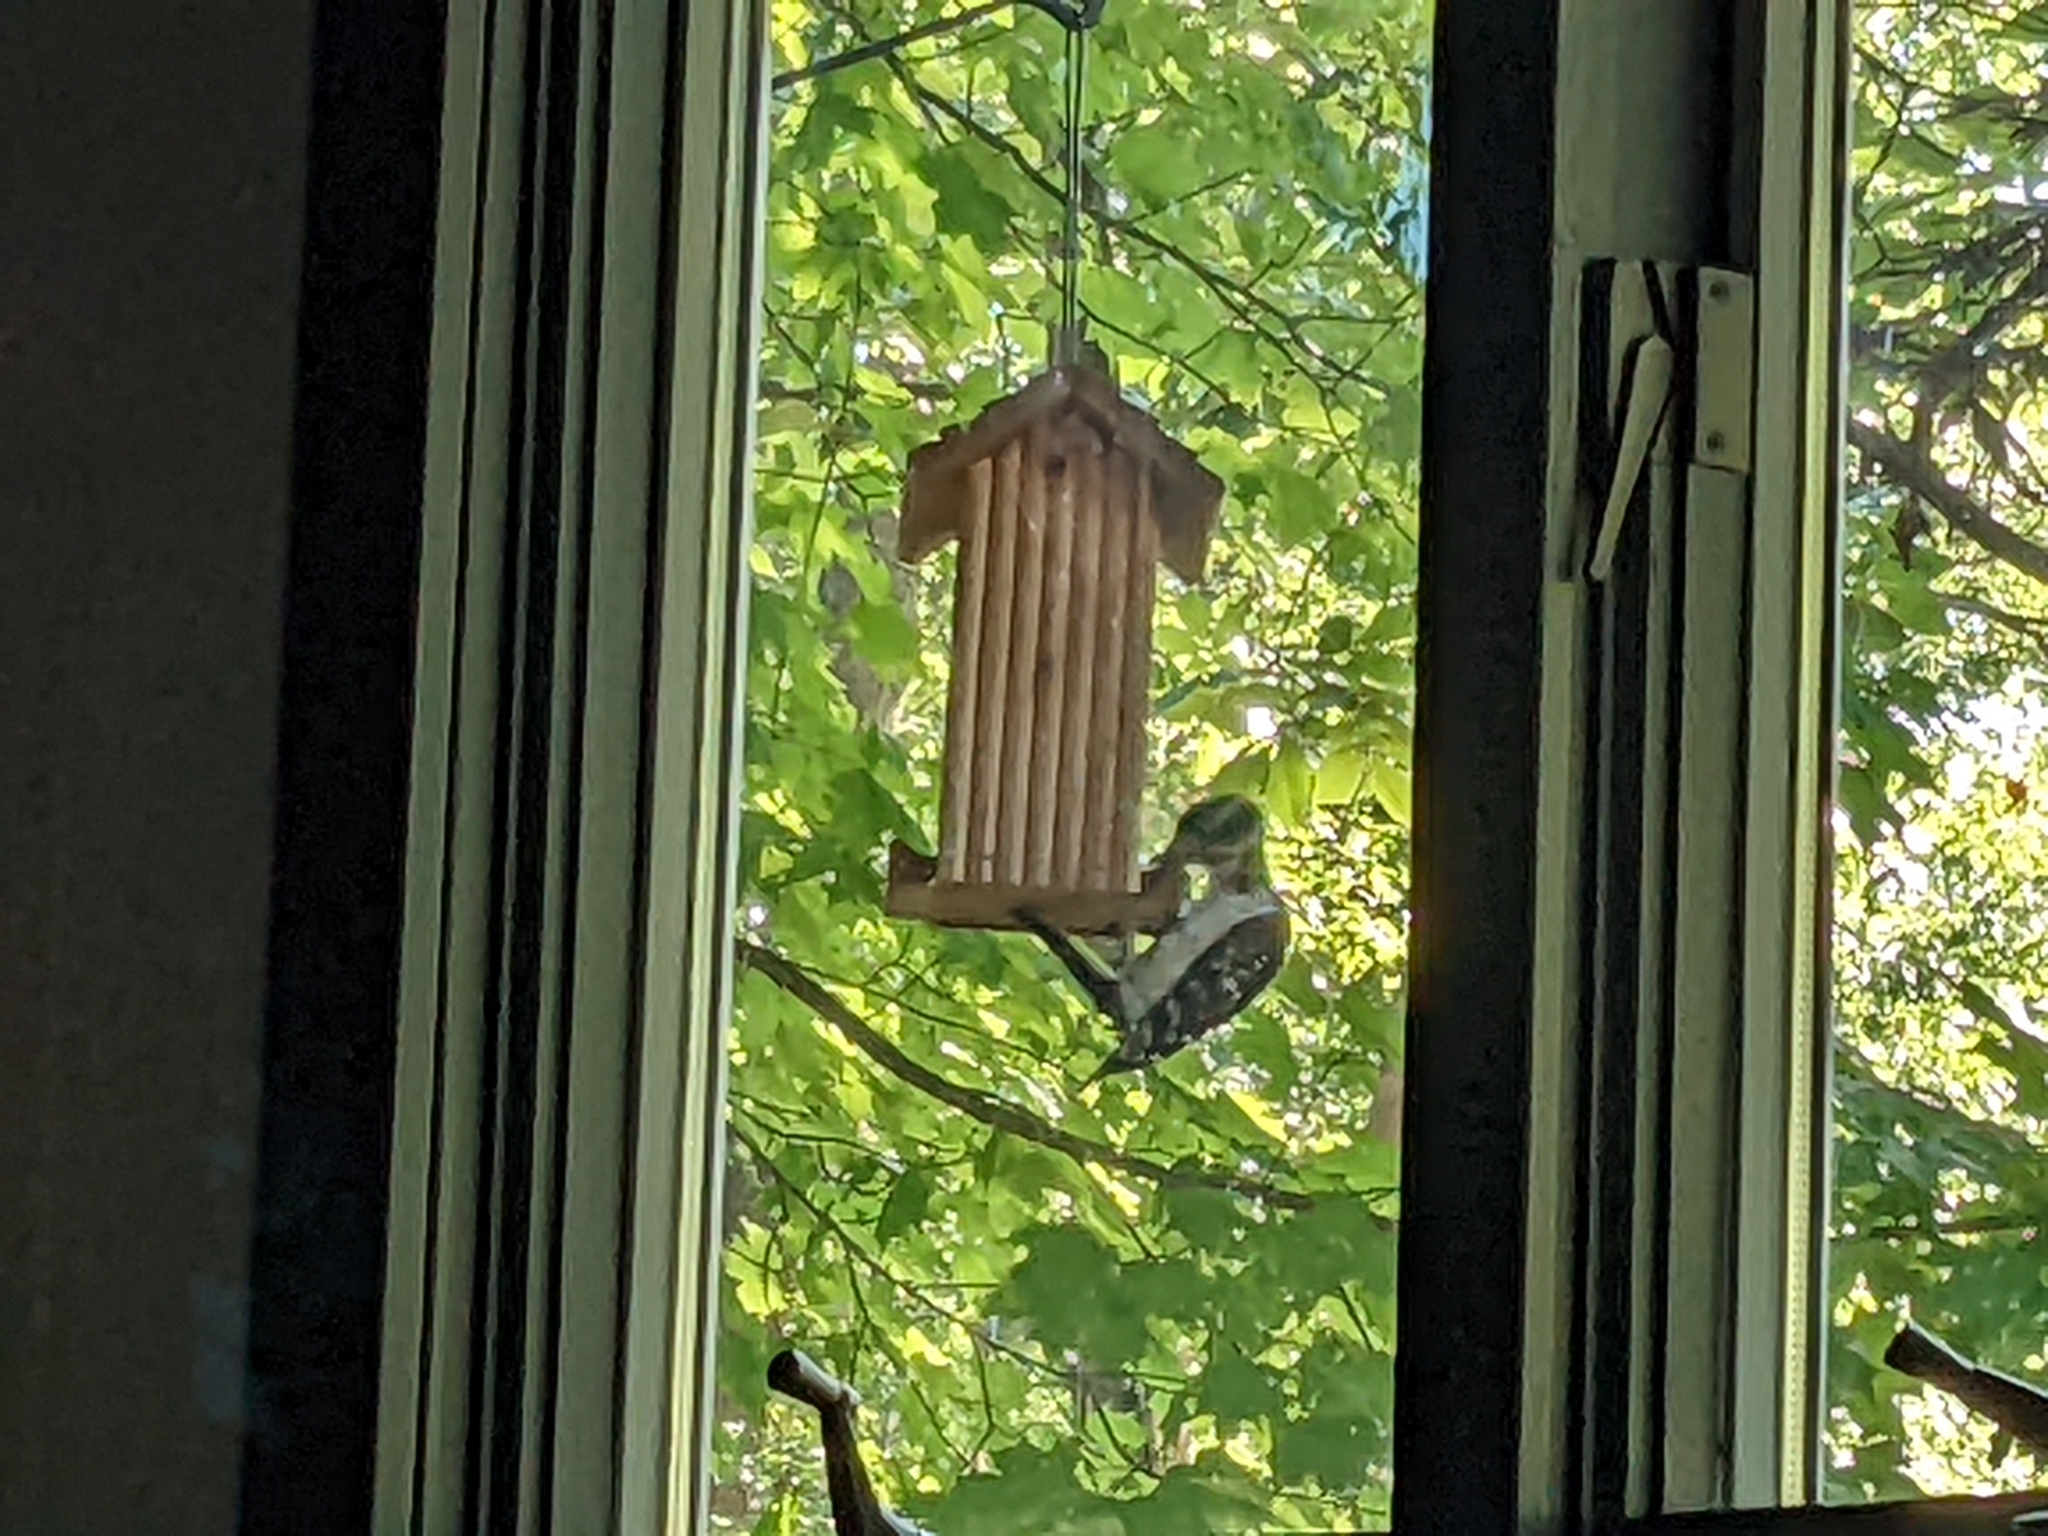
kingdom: Animalia
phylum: Chordata
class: Aves
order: Piciformes
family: Picidae
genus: Leuconotopicus
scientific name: Leuconotopicus villosus
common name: Hairy woodpecker
